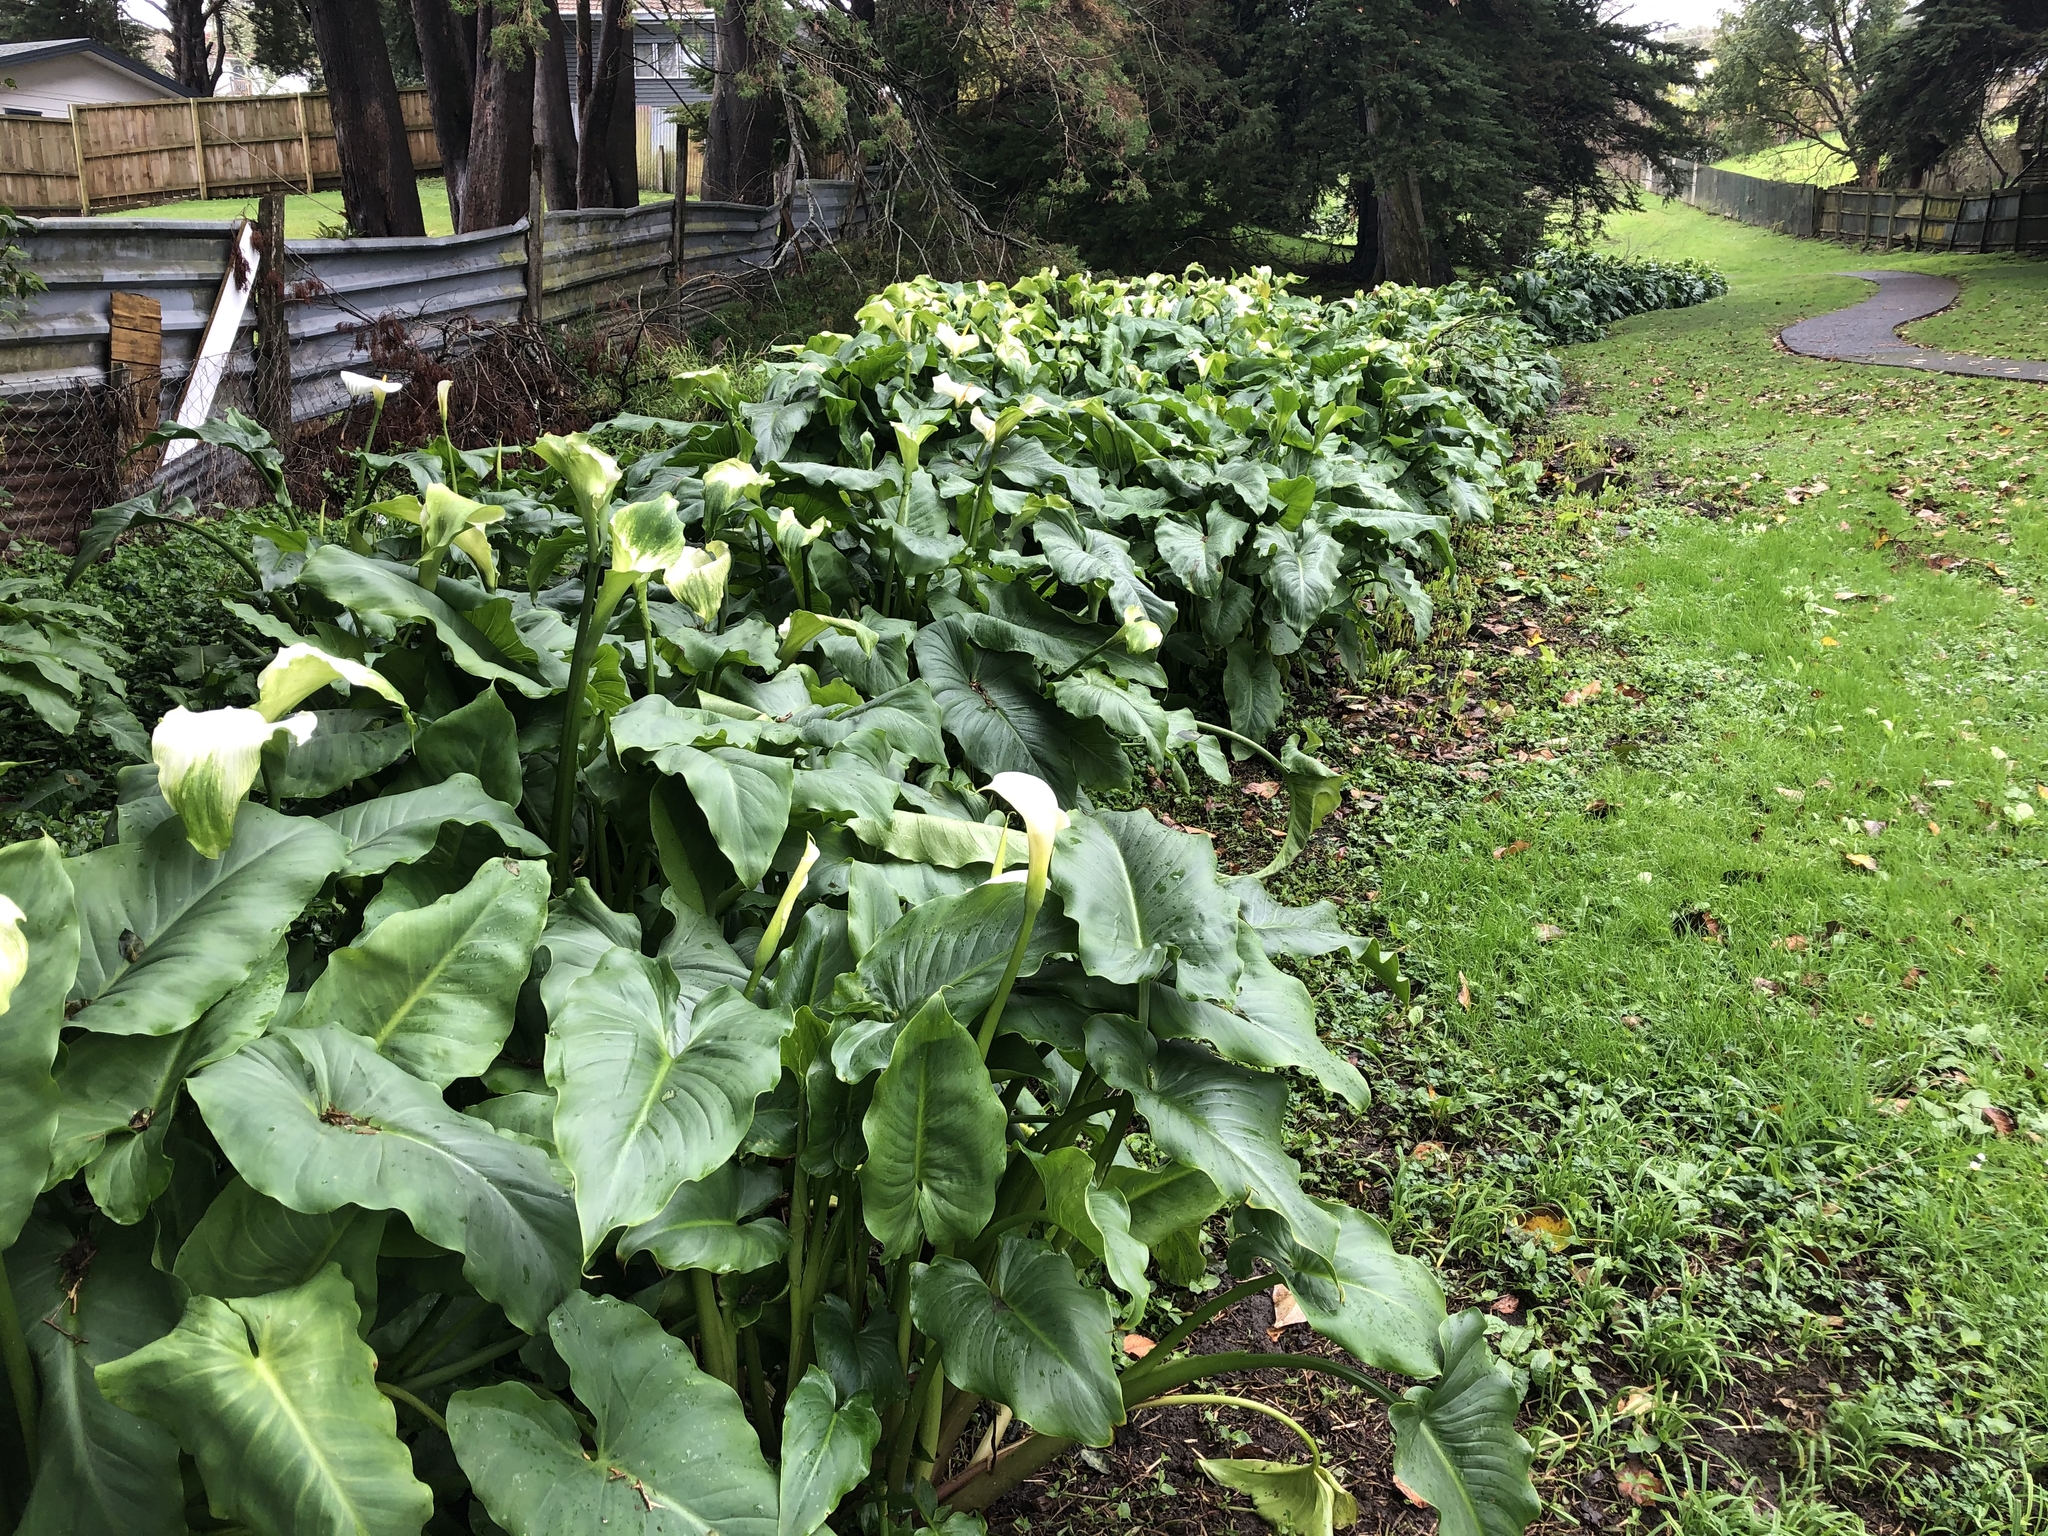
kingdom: Plantae
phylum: Tracheophyta
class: Liliopsida
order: Alismatales
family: Araceae
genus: Zantedeschia
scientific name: Zantedeschia aethiopica
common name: Altar-lily
